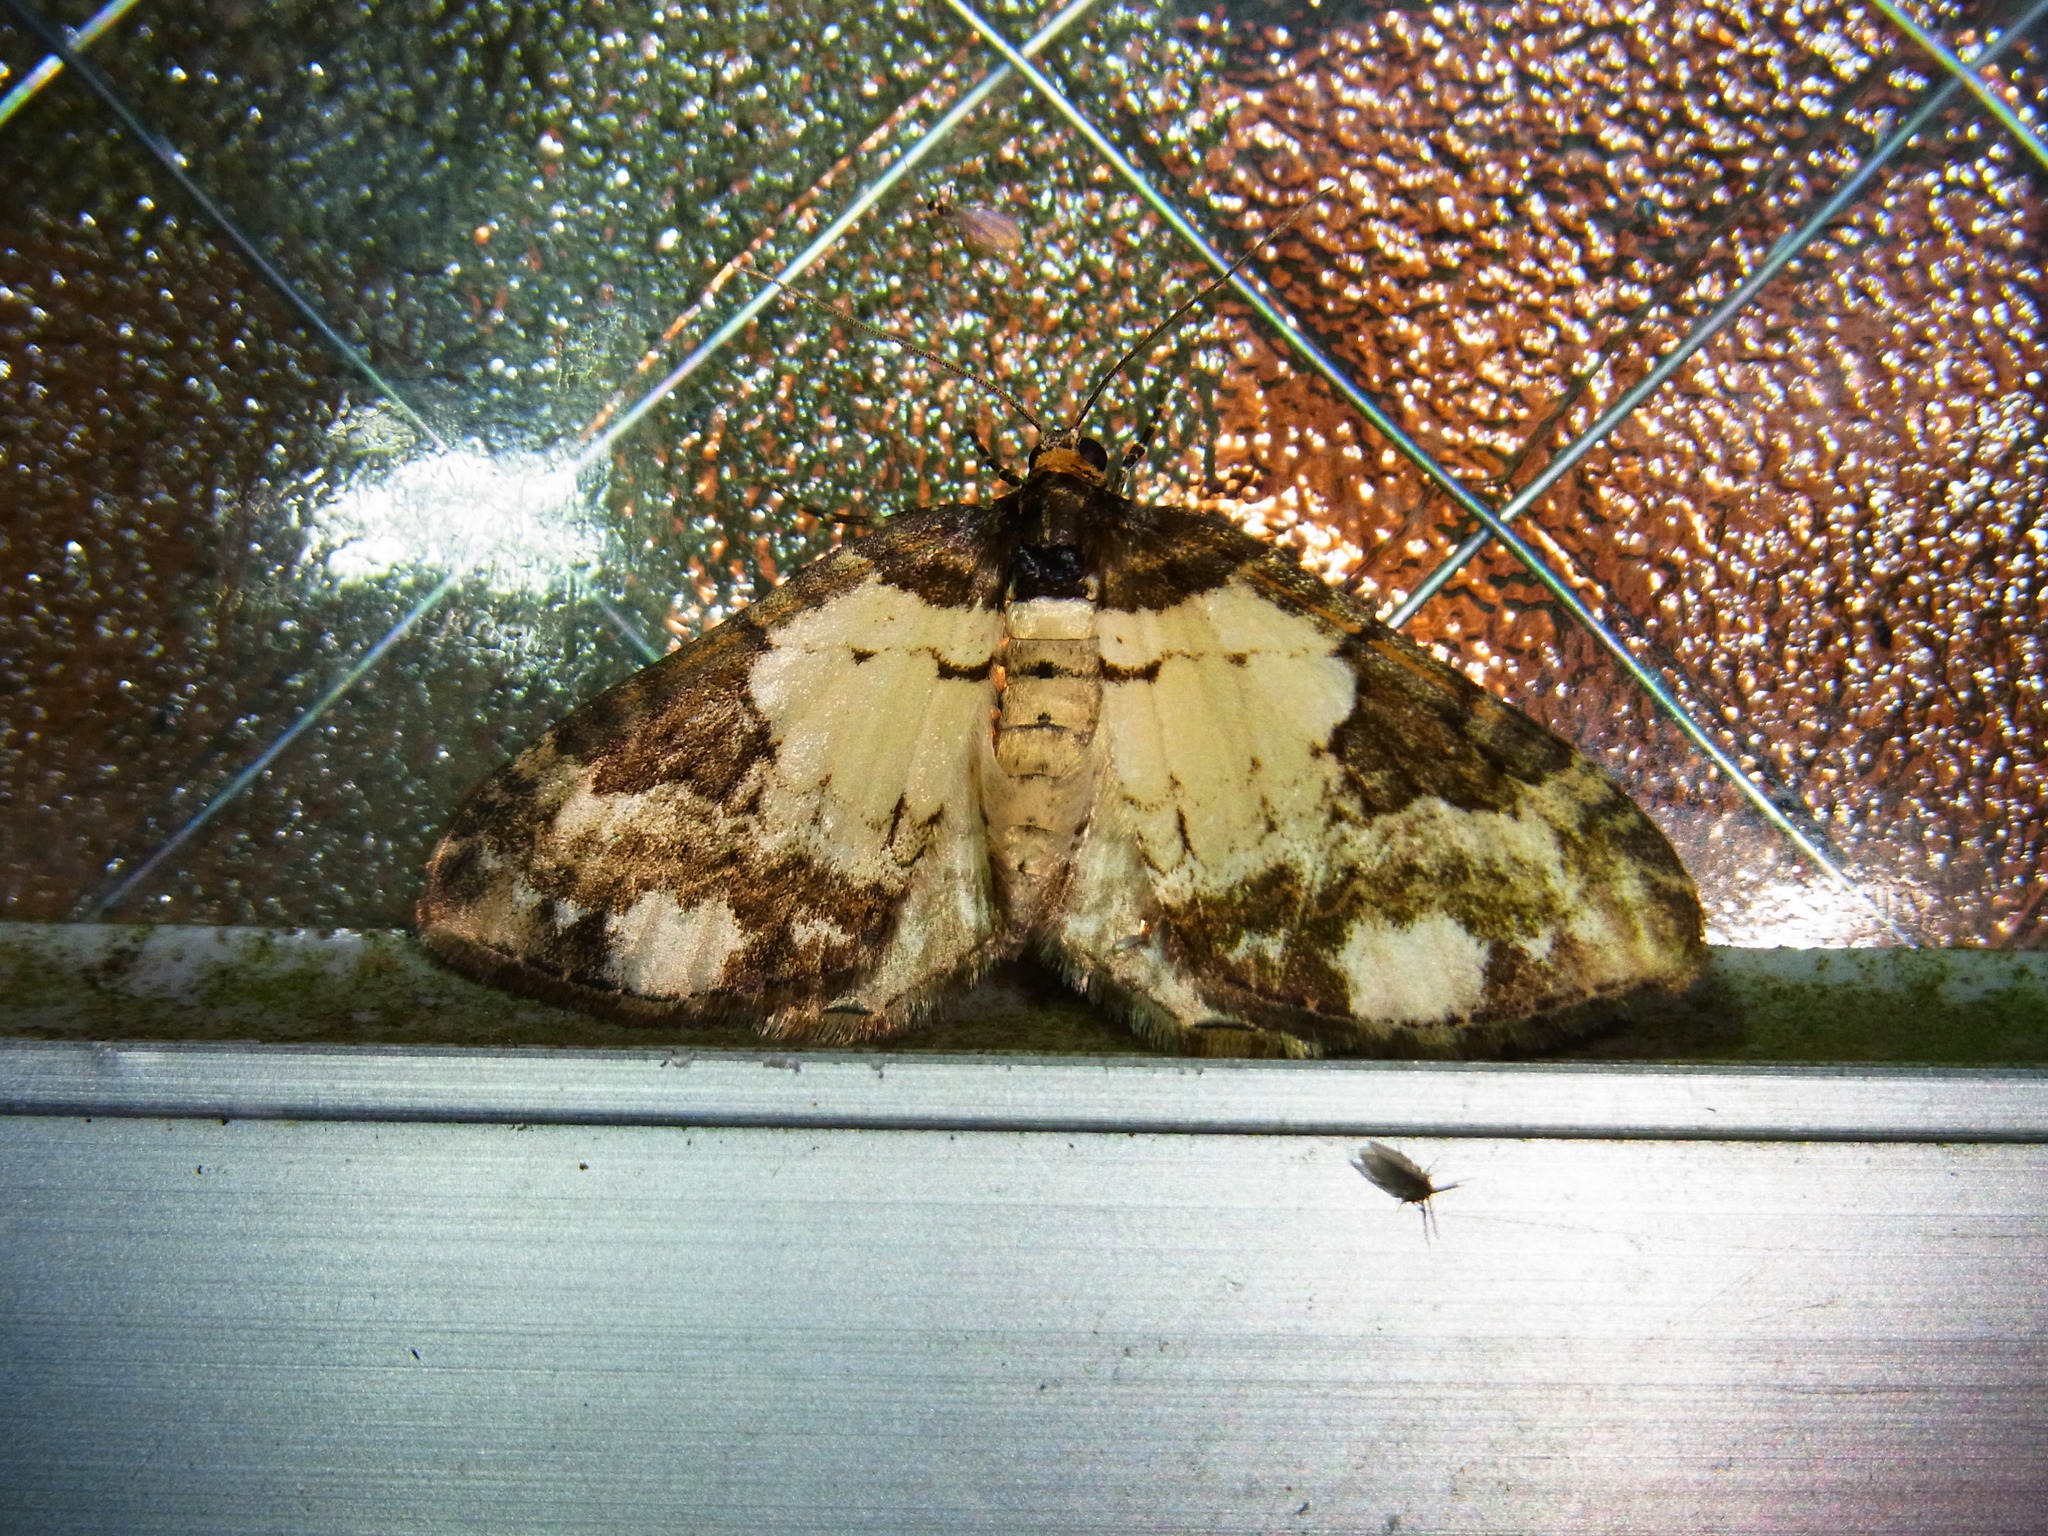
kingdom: Animalia
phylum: Arthropoda
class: Insecta
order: Lepidoptera
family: Geometridae
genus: Melanthia
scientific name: Melanthia procellata
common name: Pretty chalk carpet
